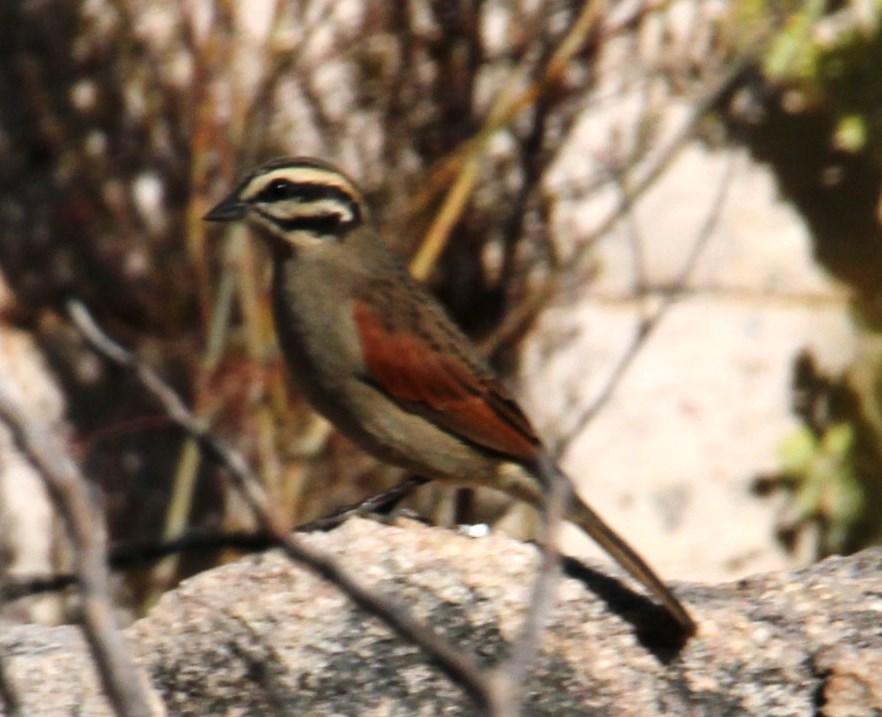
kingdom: Animalia
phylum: Chordata
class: Aves
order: Passeriformes
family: Emberizidae
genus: Emberiza
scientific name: Emberiza capensis
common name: Cape bunting
